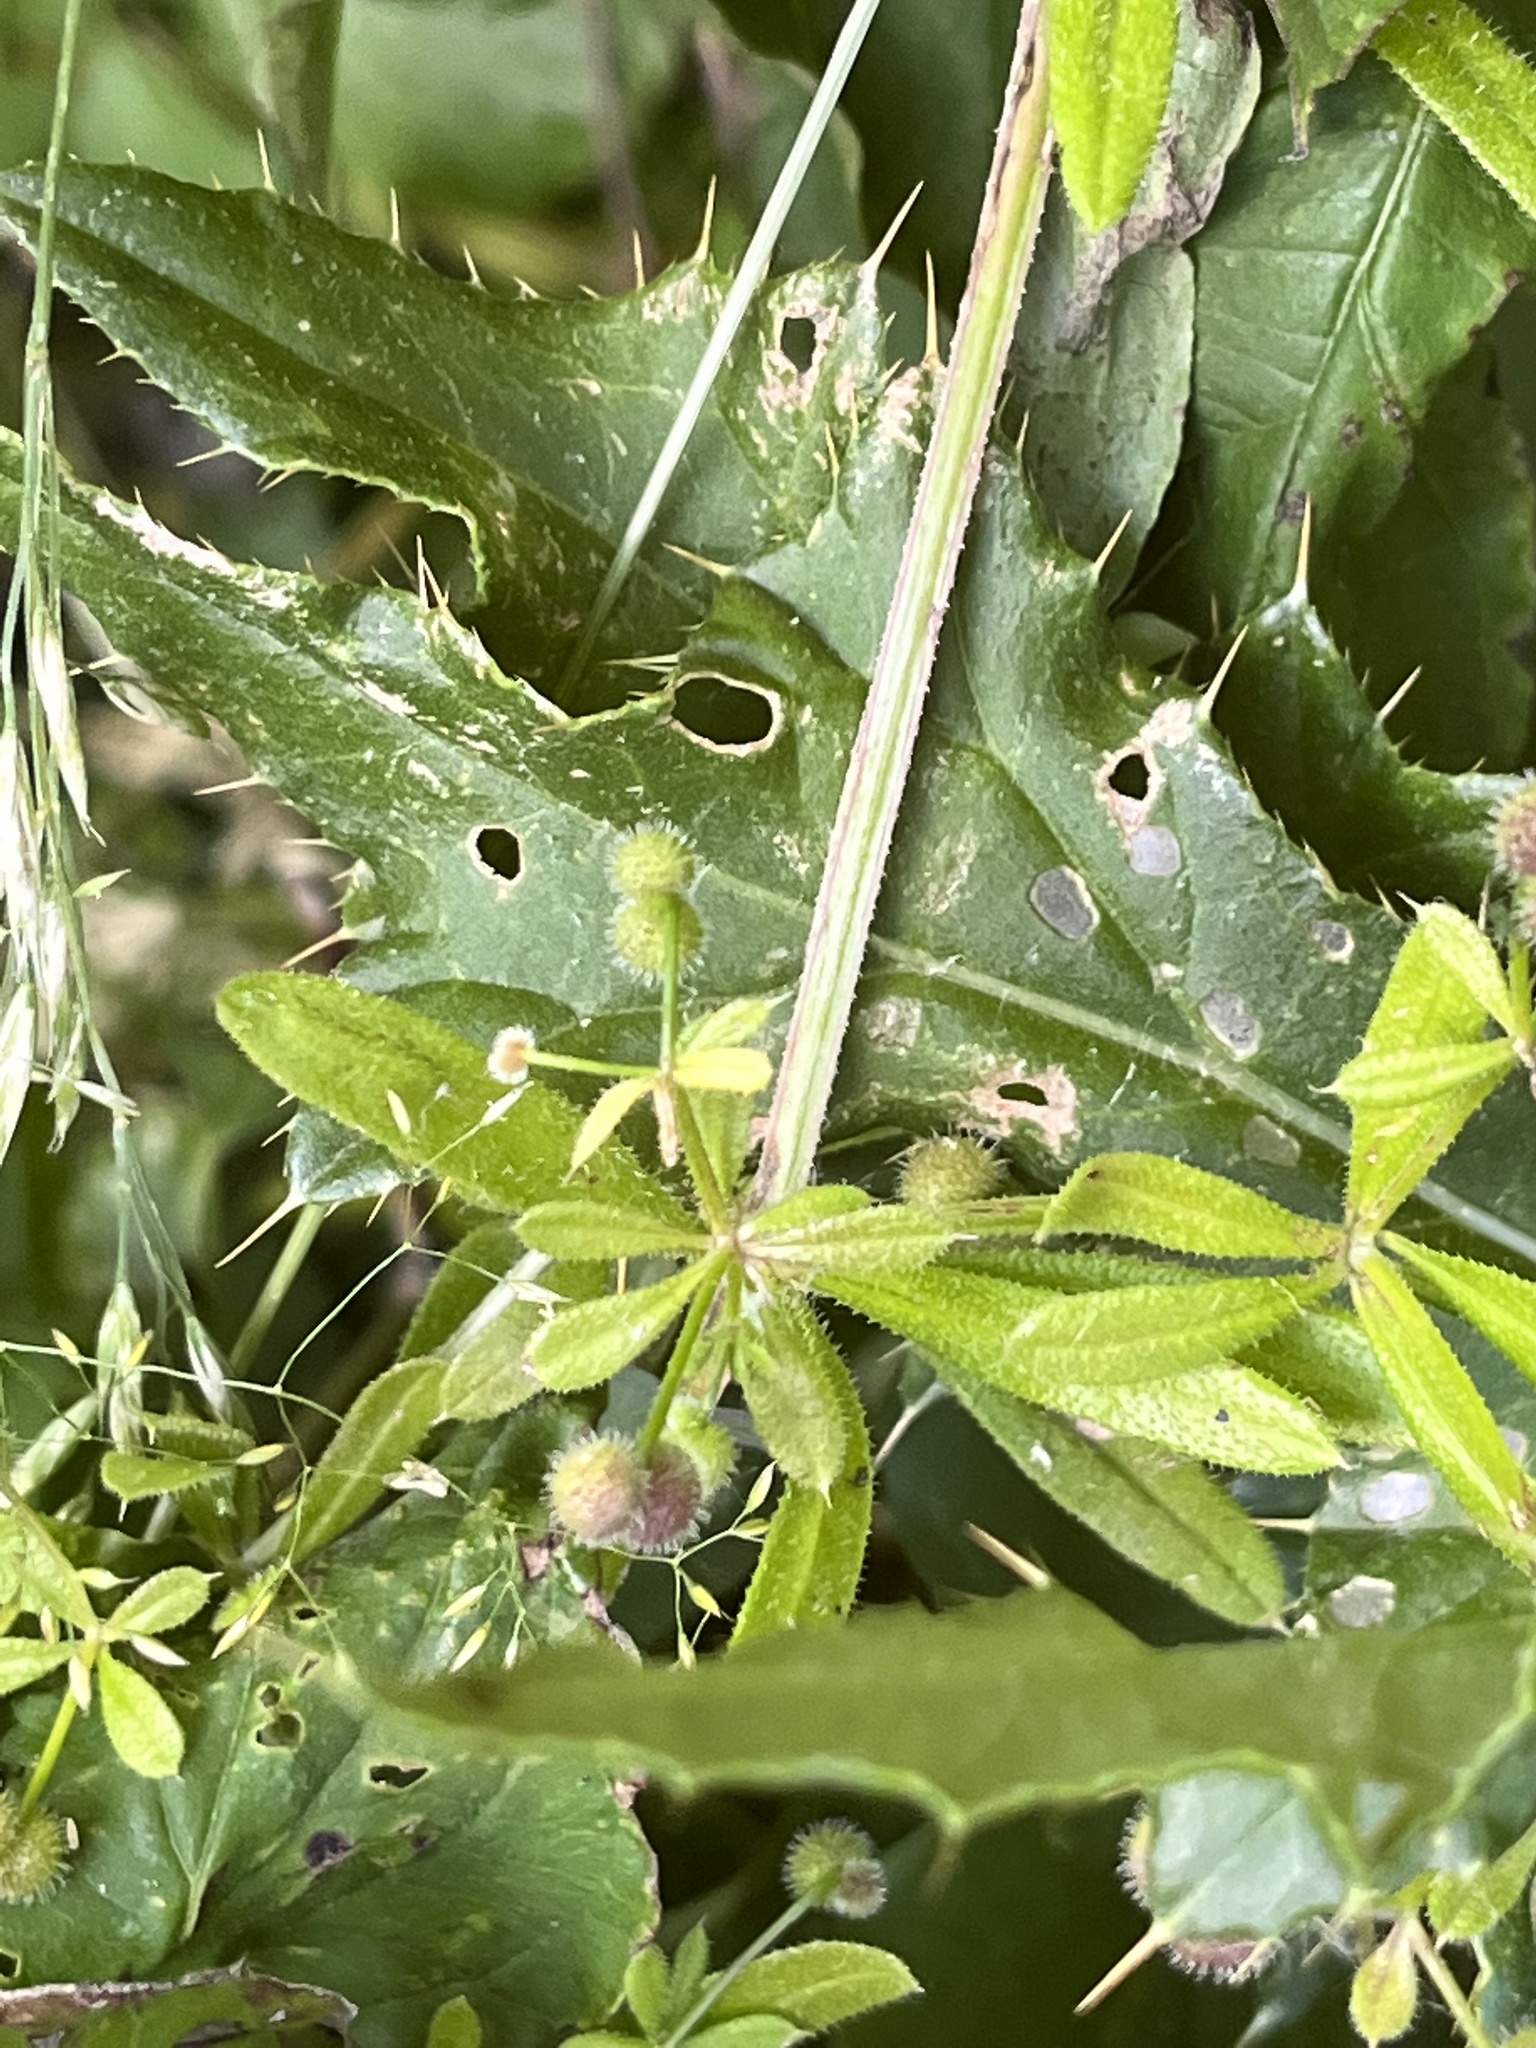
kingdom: Plantae
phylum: Tracheophyta
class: Magnoliopsida
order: Gentianales
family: Rubiaceae
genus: Galium
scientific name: Galium aparine
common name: Cleavers
